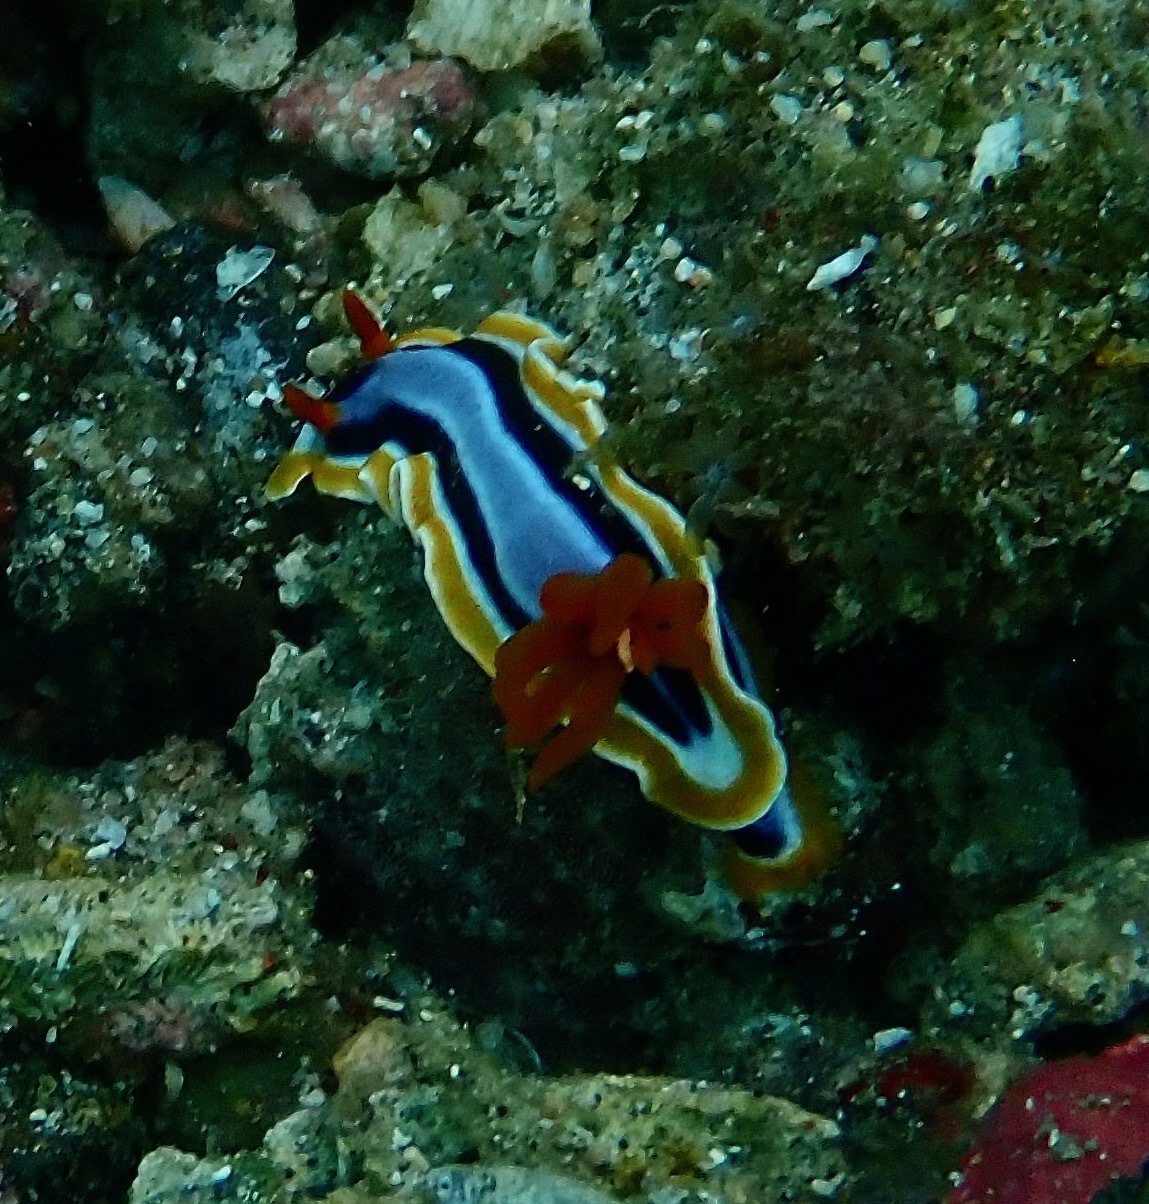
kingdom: Animalia
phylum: Mollusca
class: Gastropoda
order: Nudibranchia
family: Chromodorididae
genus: Chromodoris
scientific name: Chromodoris annae
